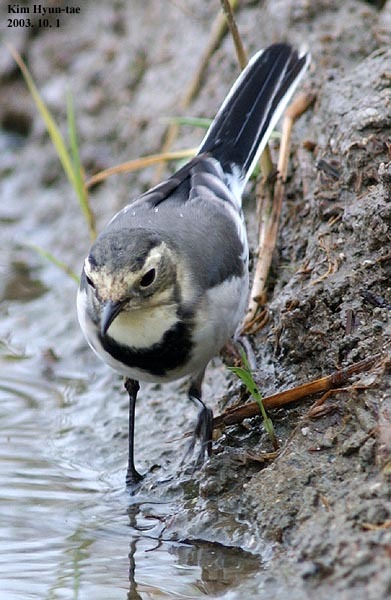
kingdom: Animalia
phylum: Chordata
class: Aves
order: Passeriformes
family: Motacillidae
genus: Motacilla
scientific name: Motacilla alba
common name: White wagtail
